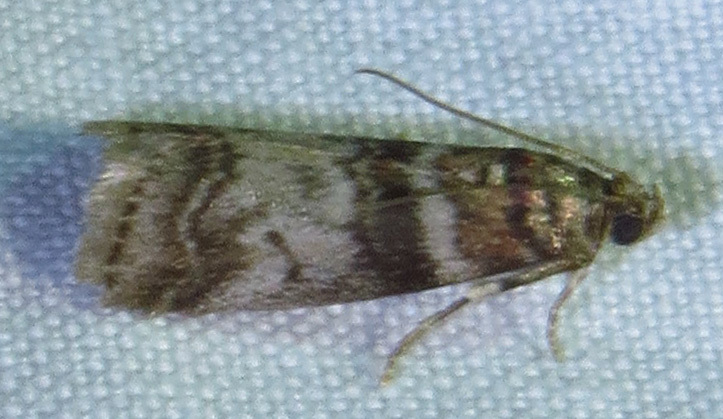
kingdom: Animalia
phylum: Arthropoda
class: Insecta
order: Lepidoptera
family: Pyralidae
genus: Sciota
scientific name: Sciota uvinella
